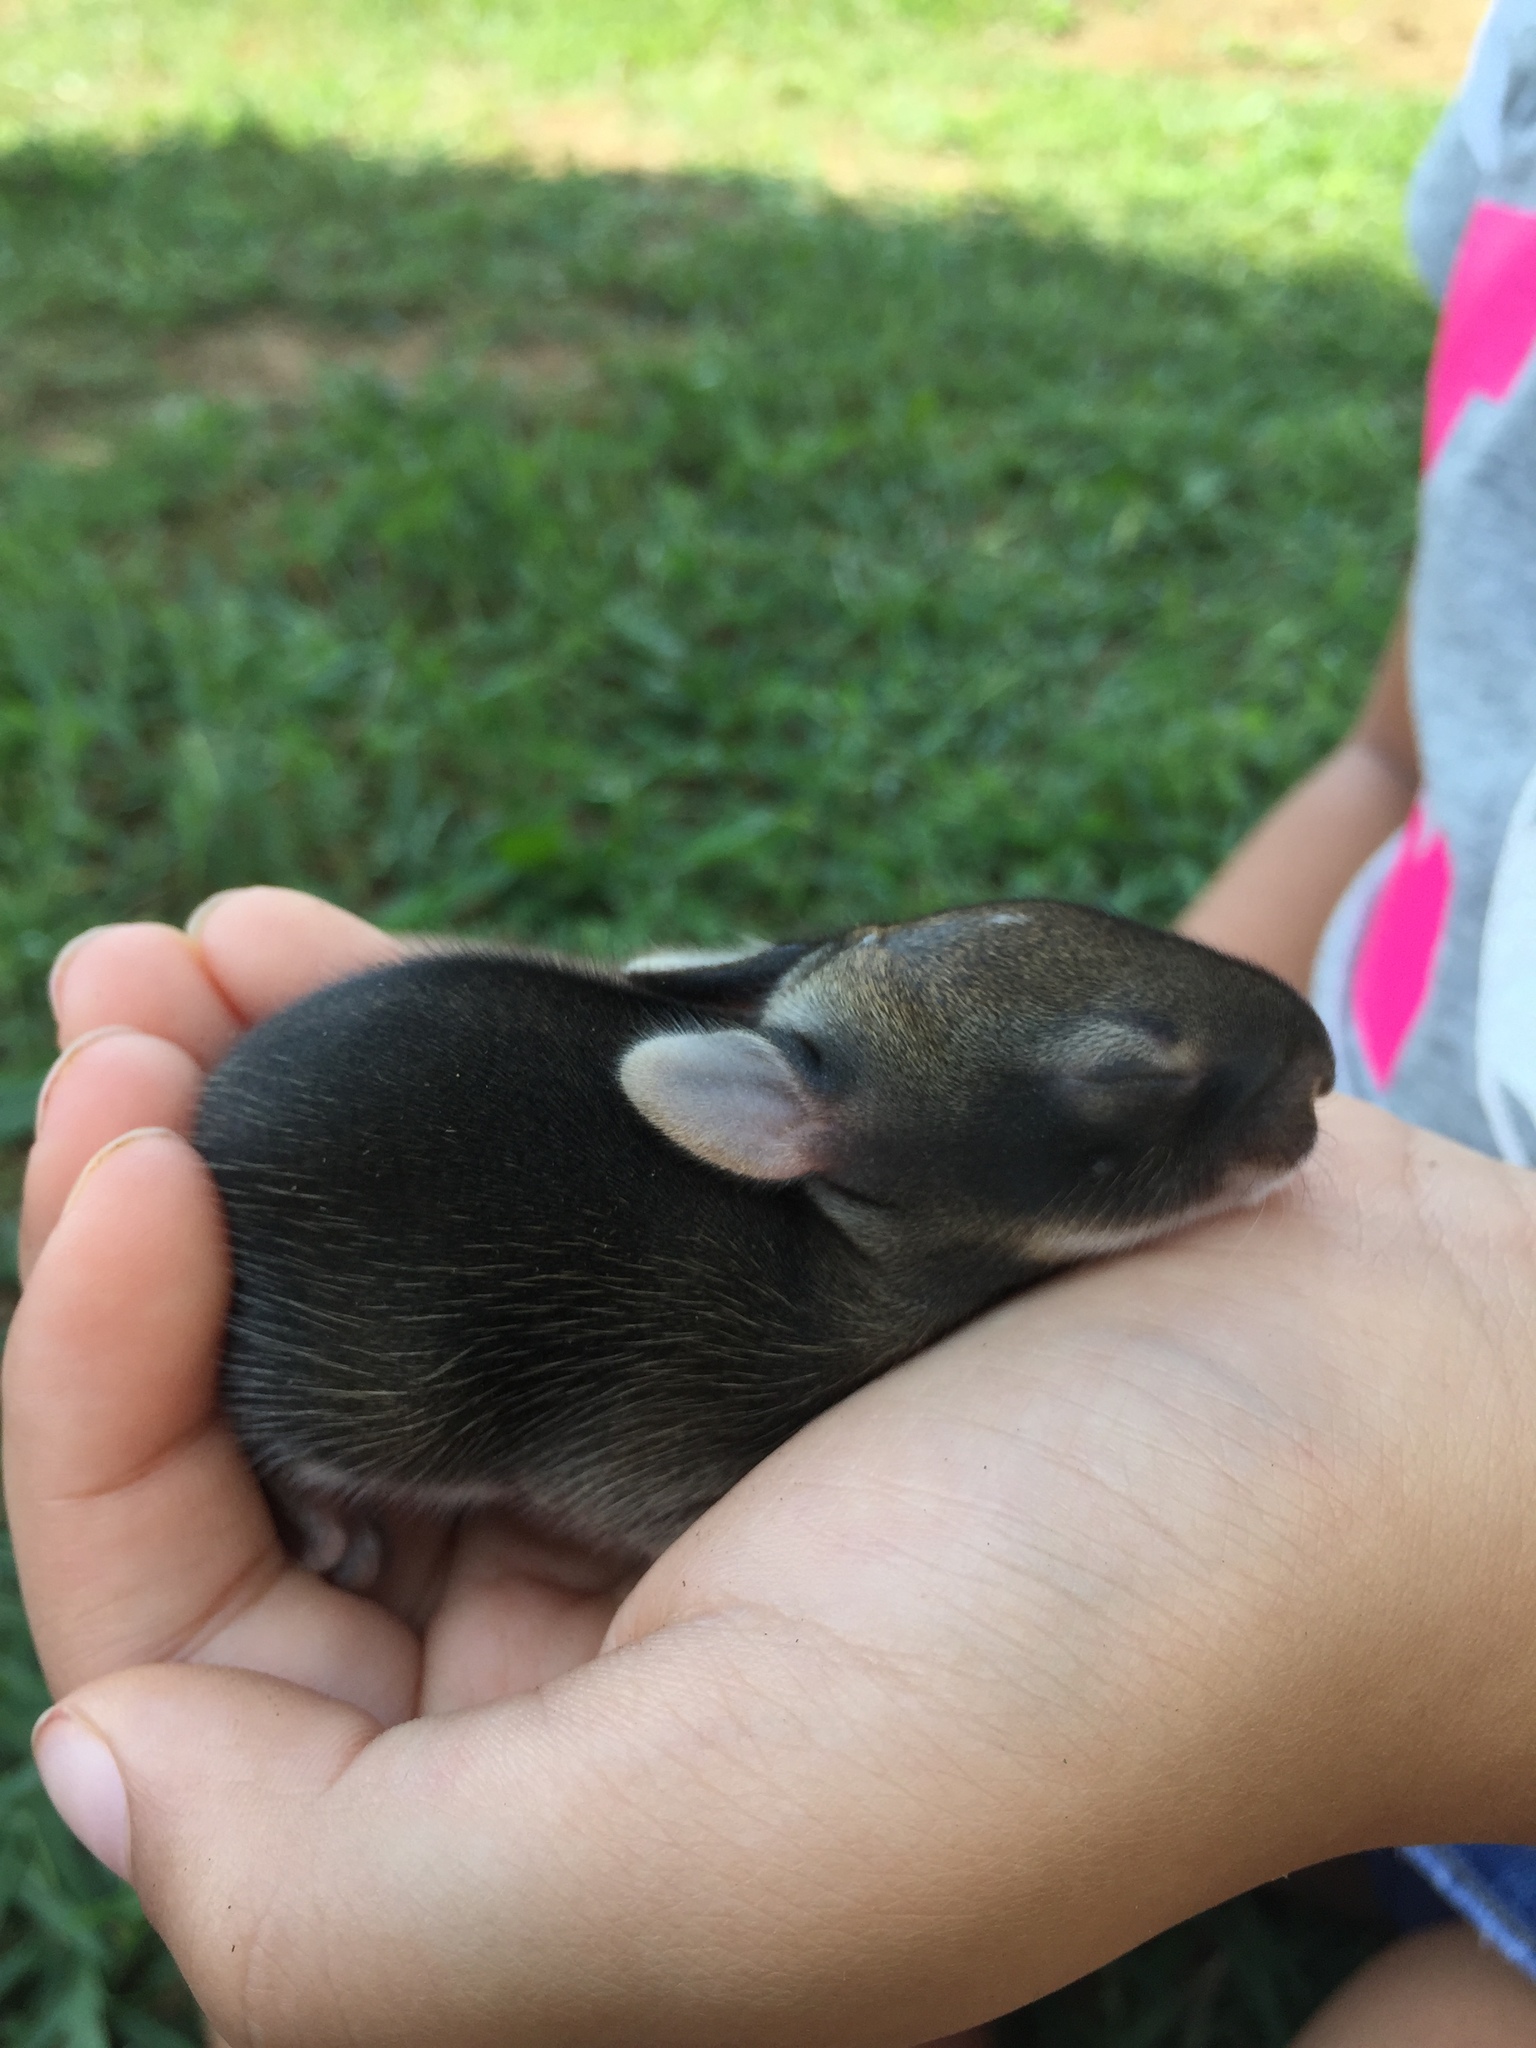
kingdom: Animalia
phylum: Chordata
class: Mammalia
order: Lagomorpha
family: Leporidae
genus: Sylvilagus
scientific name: Sylvilagus floridanus
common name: Eastern cottontail
